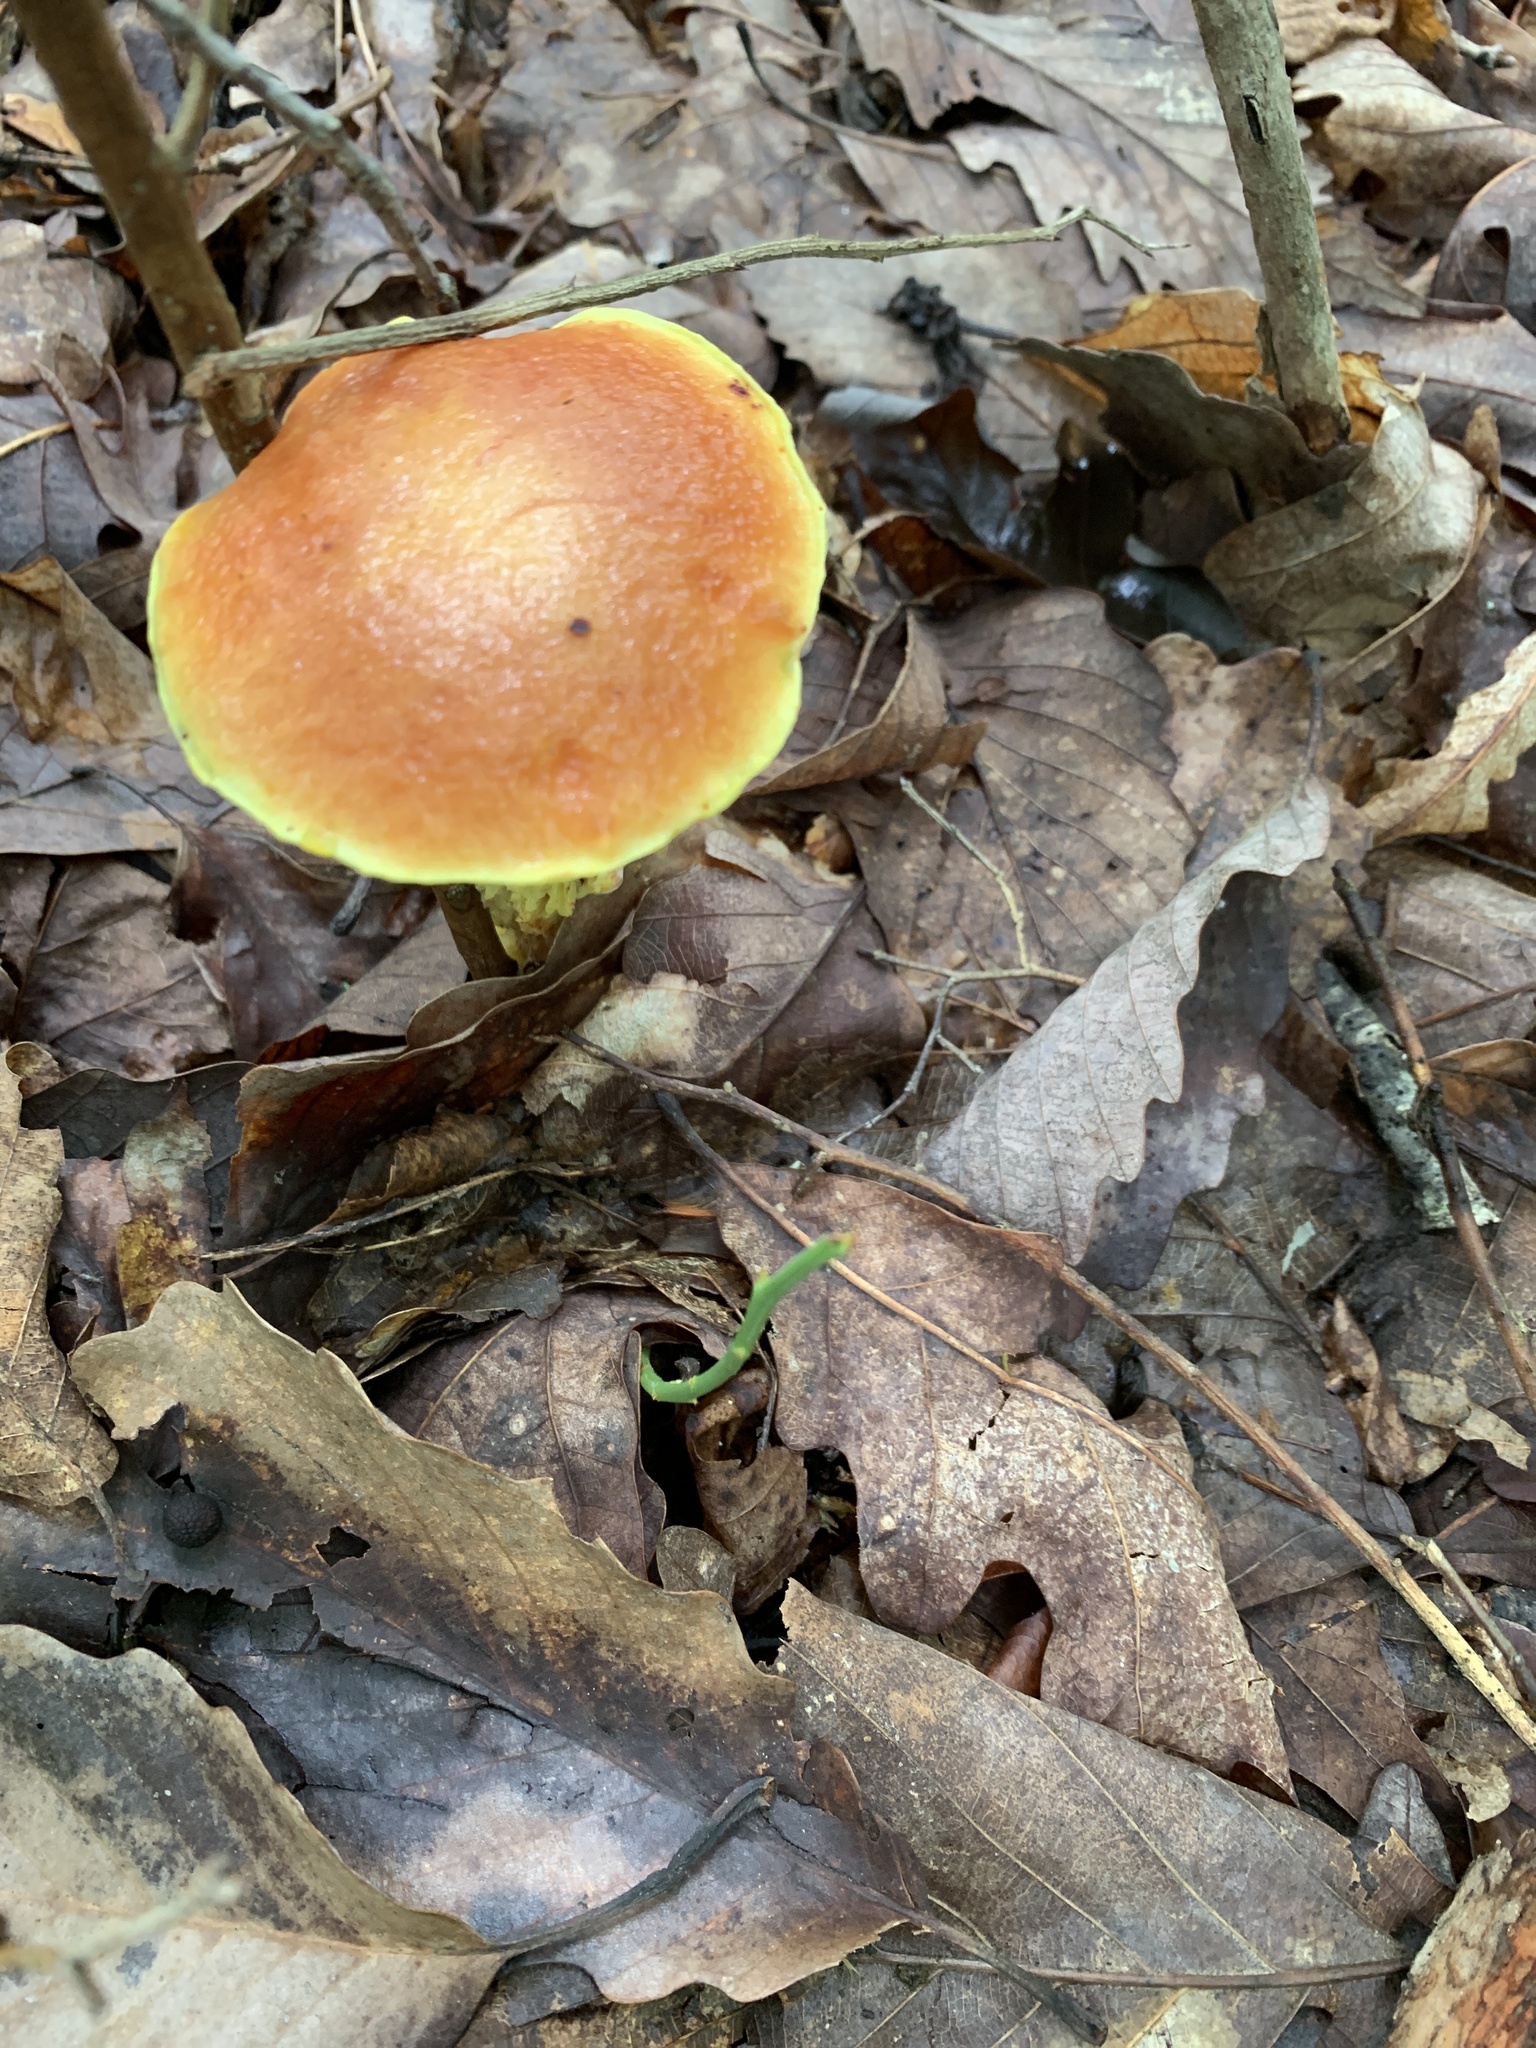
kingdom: Fungi
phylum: Basidiomycota
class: Agaricomycetes
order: Boletales
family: Boletaceae
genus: Aureoboletus
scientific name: Aureoboletus betula
